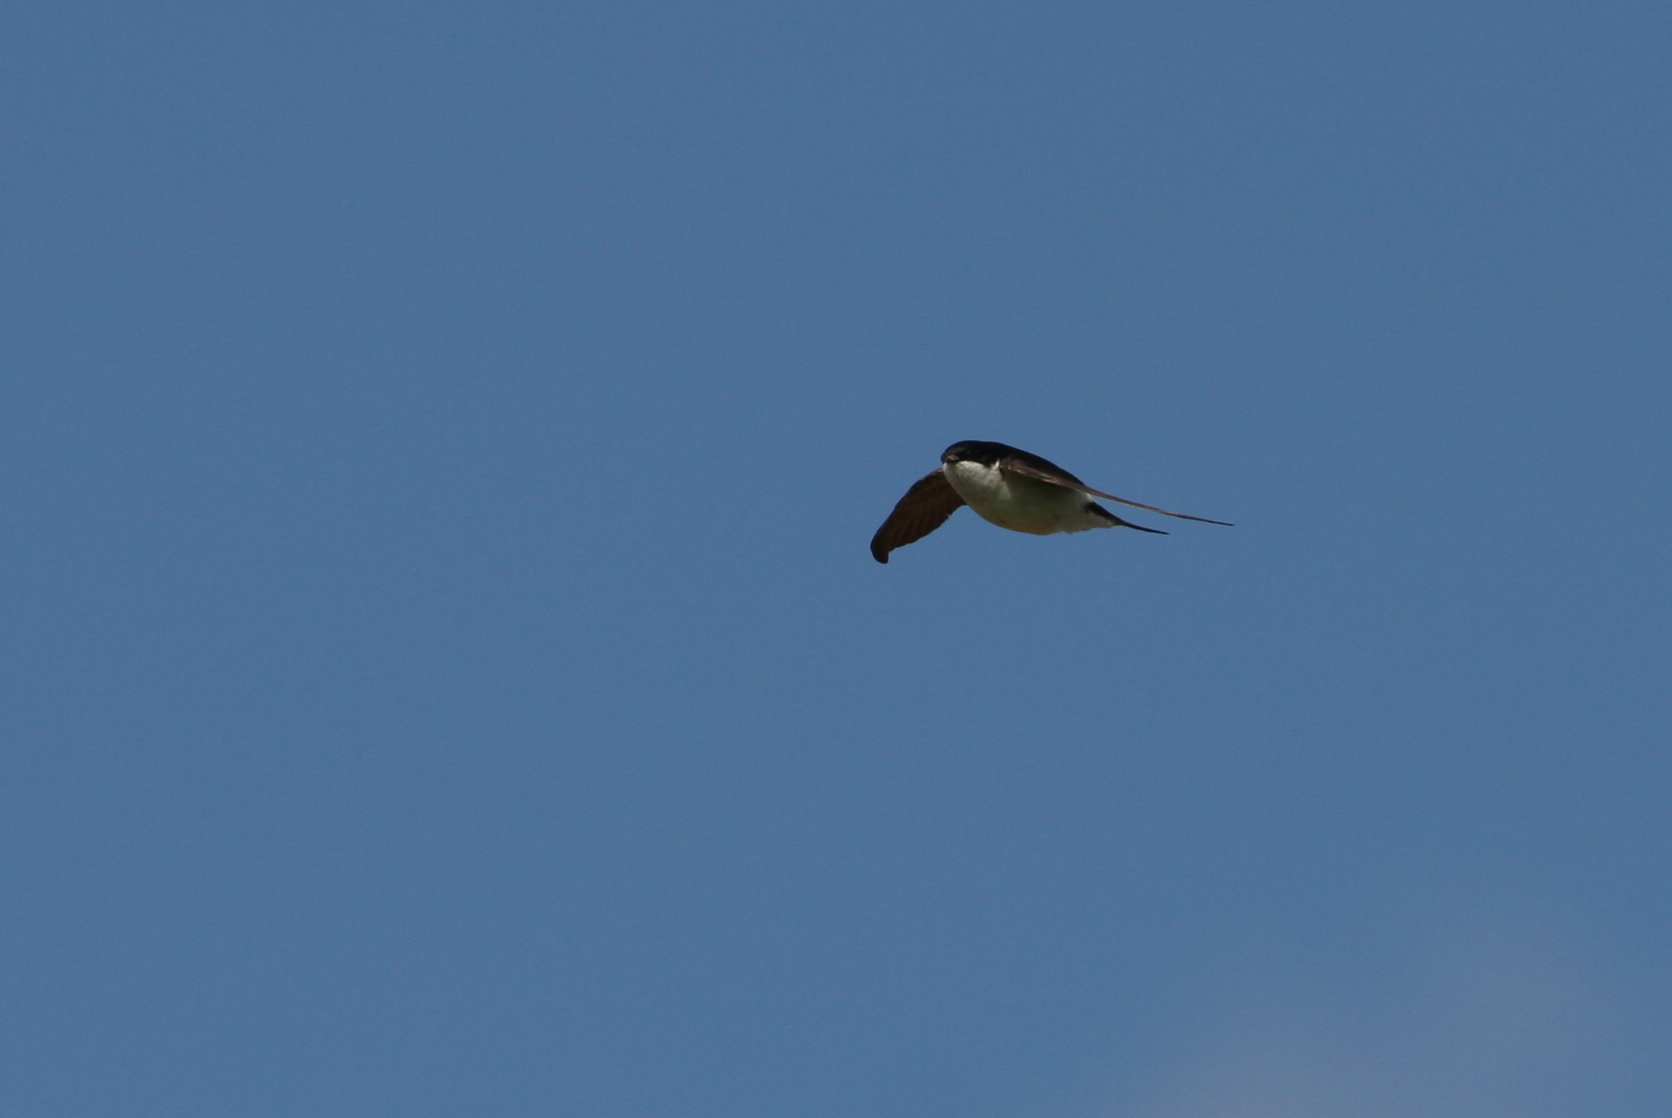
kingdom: Animalia
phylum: Chordata
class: Aves
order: Passeriformes
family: Hirundinidae
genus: Delichon
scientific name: Delichon urbicum
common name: Common house martin
